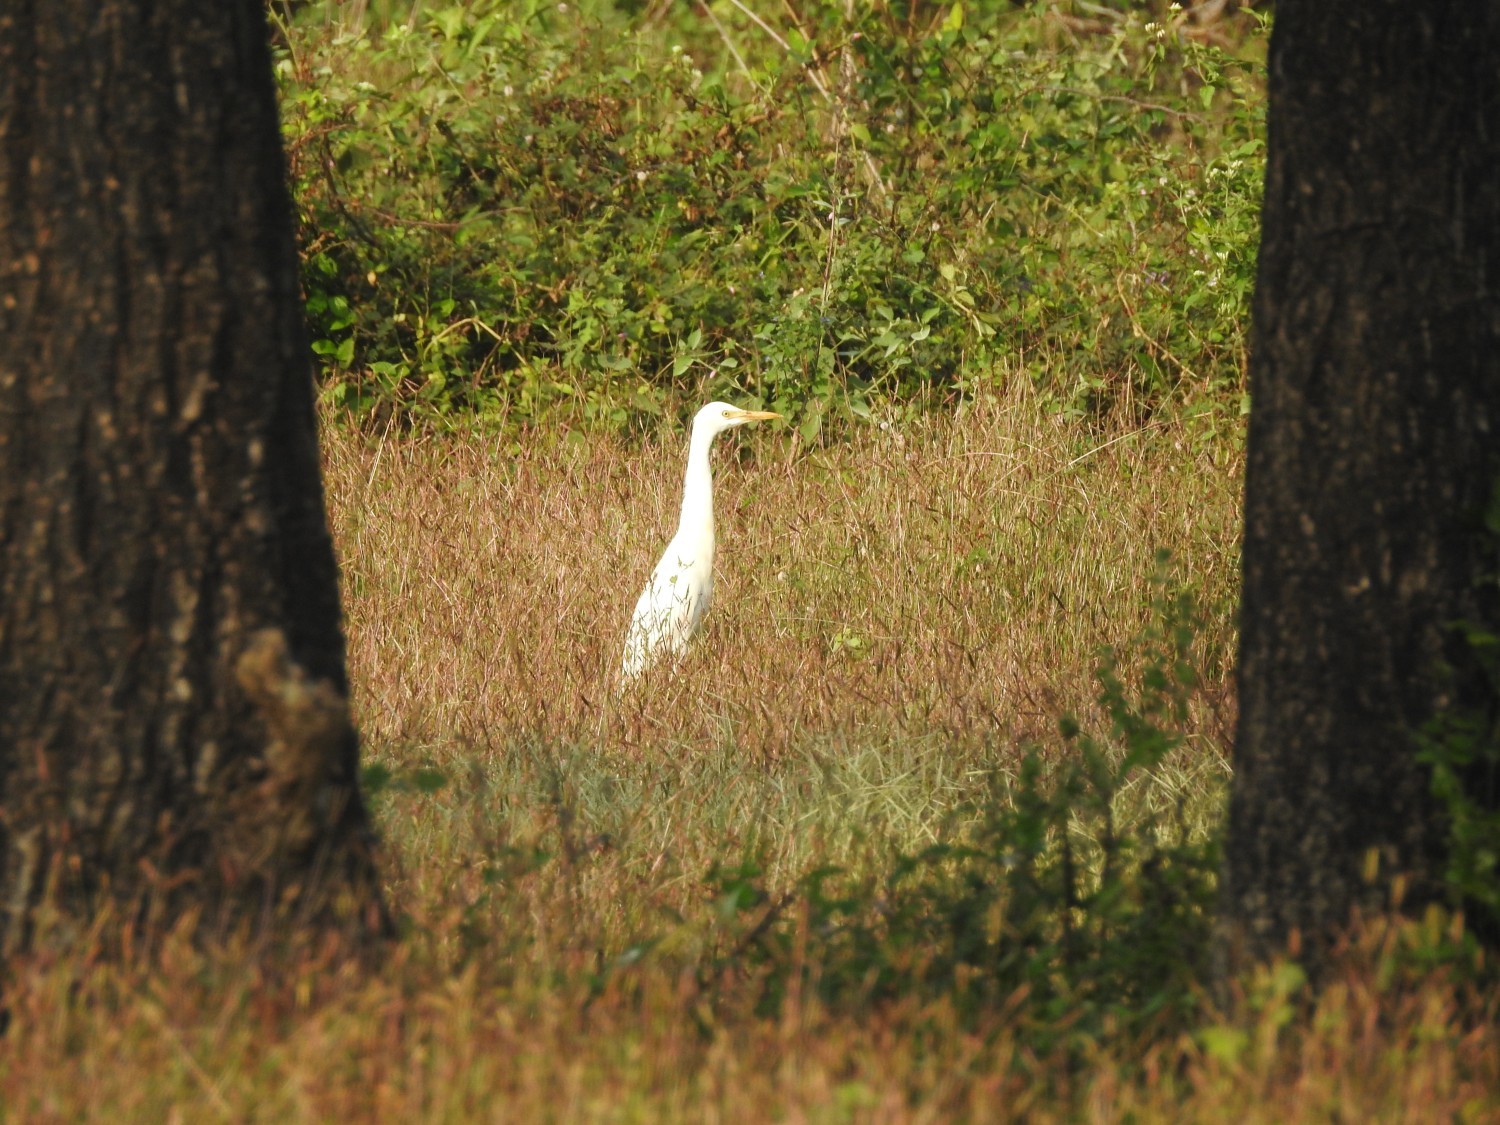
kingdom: Animalia
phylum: Chordata
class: Aves
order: Pelecaniformes
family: Ardeidae
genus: Bubulcus
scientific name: Bubulcus coromandus
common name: Eastern cattle egret
